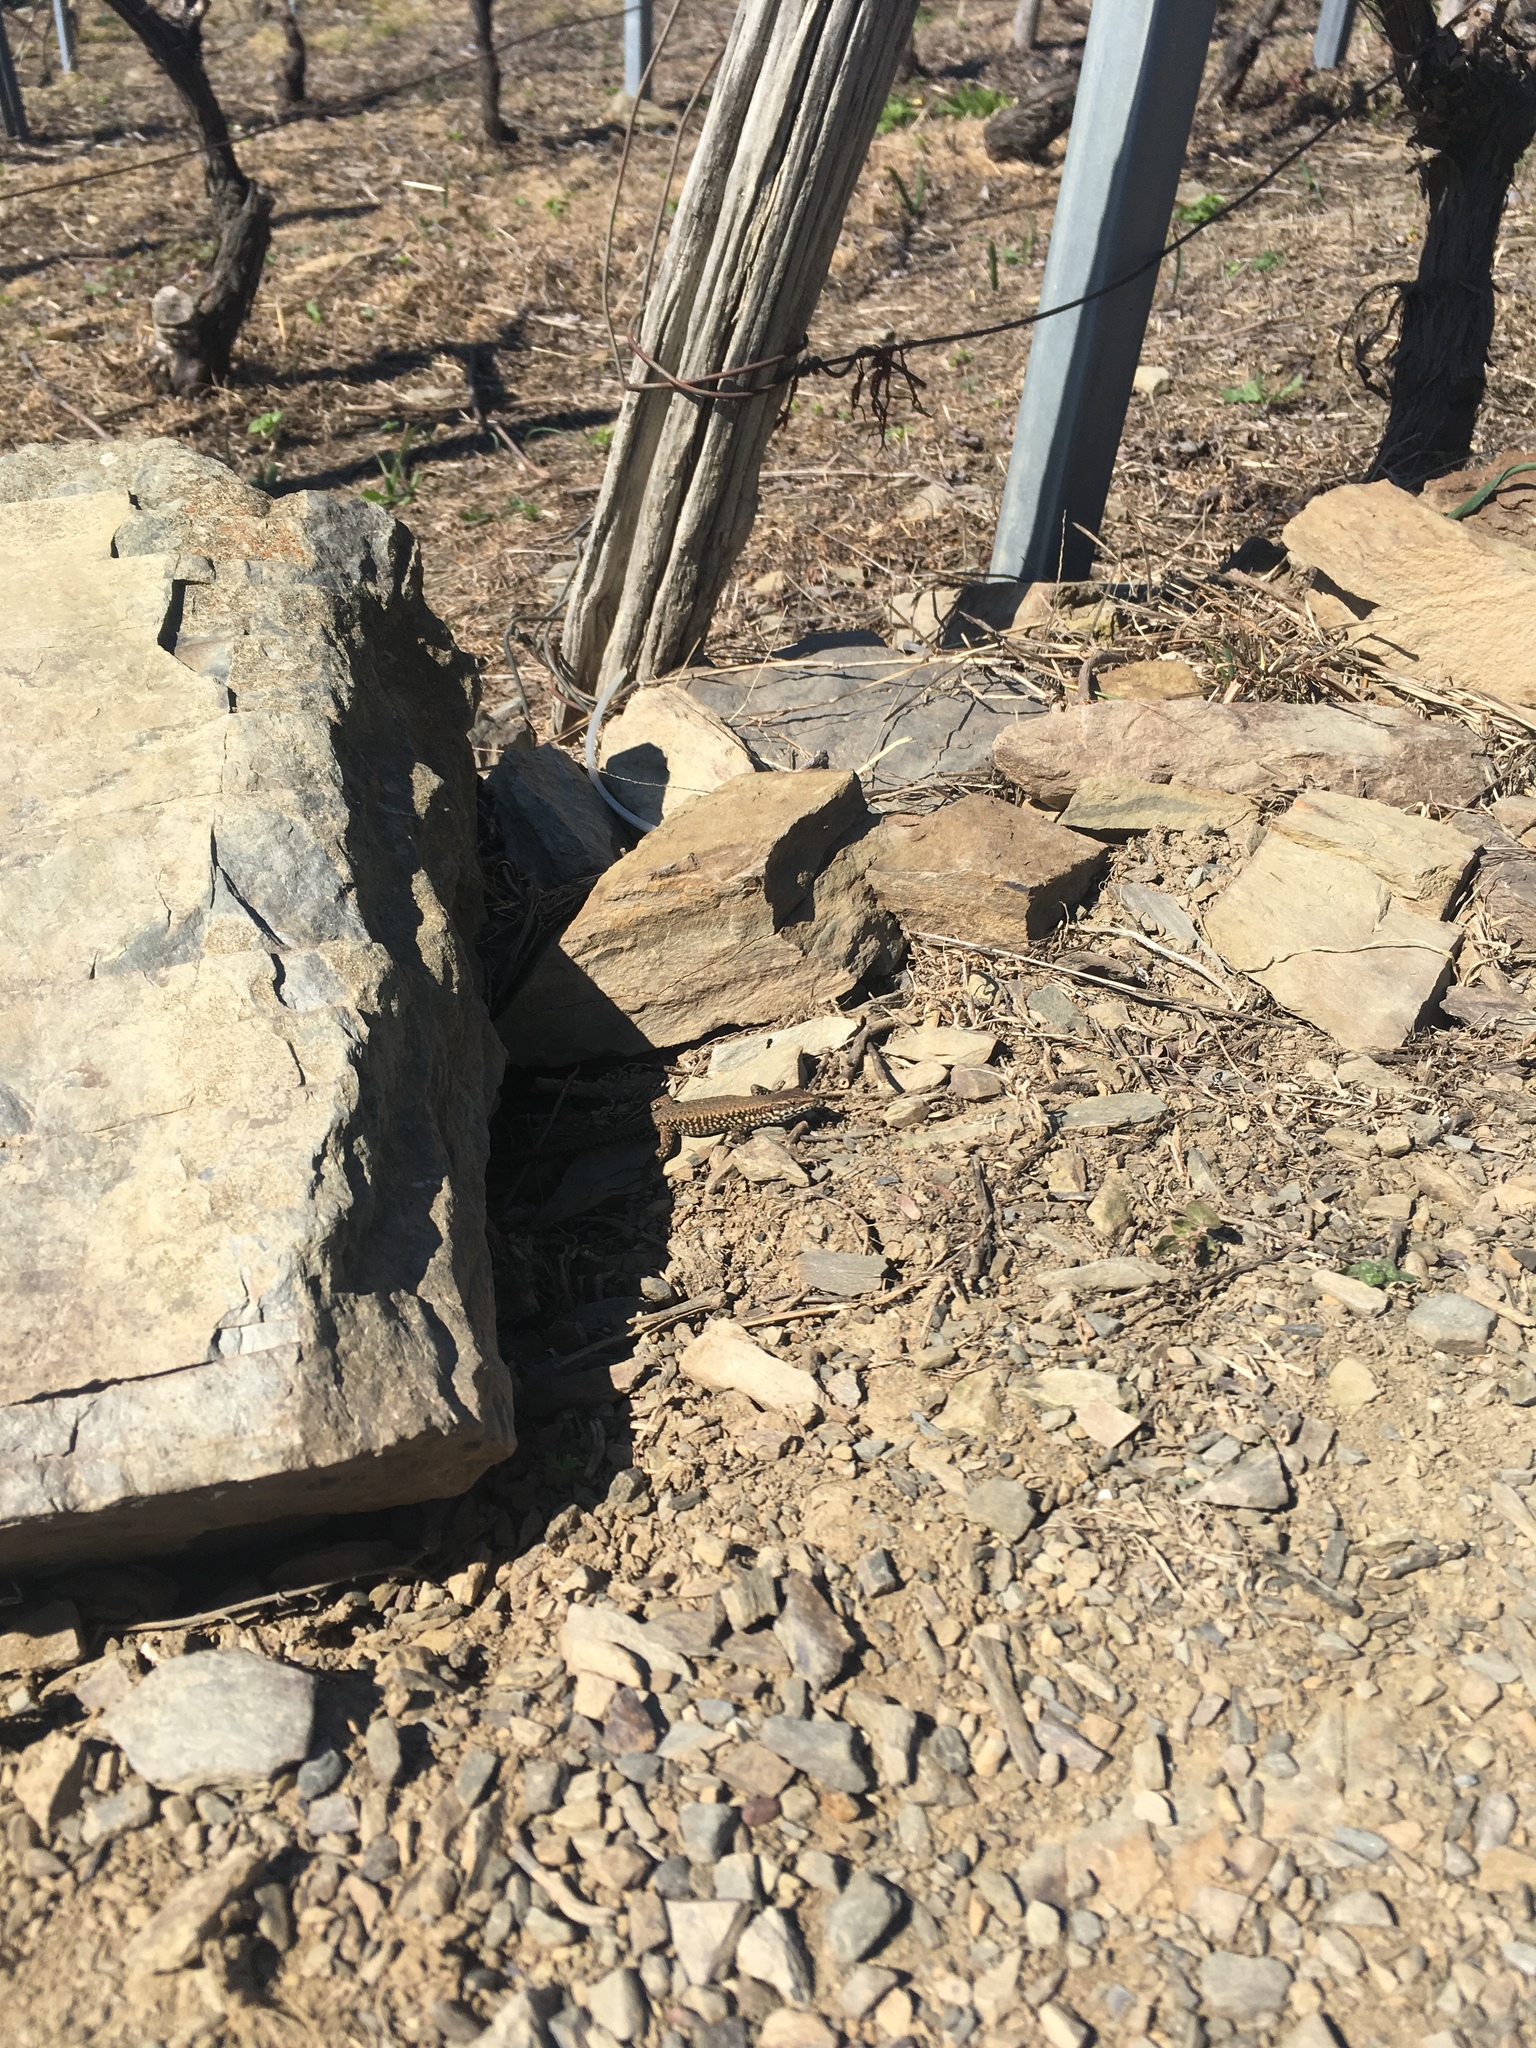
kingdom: Animalia
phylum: Chordata
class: Squamata
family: Lacertidae
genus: Podarcis
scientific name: Podarcis muralis
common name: Common wall lizard
